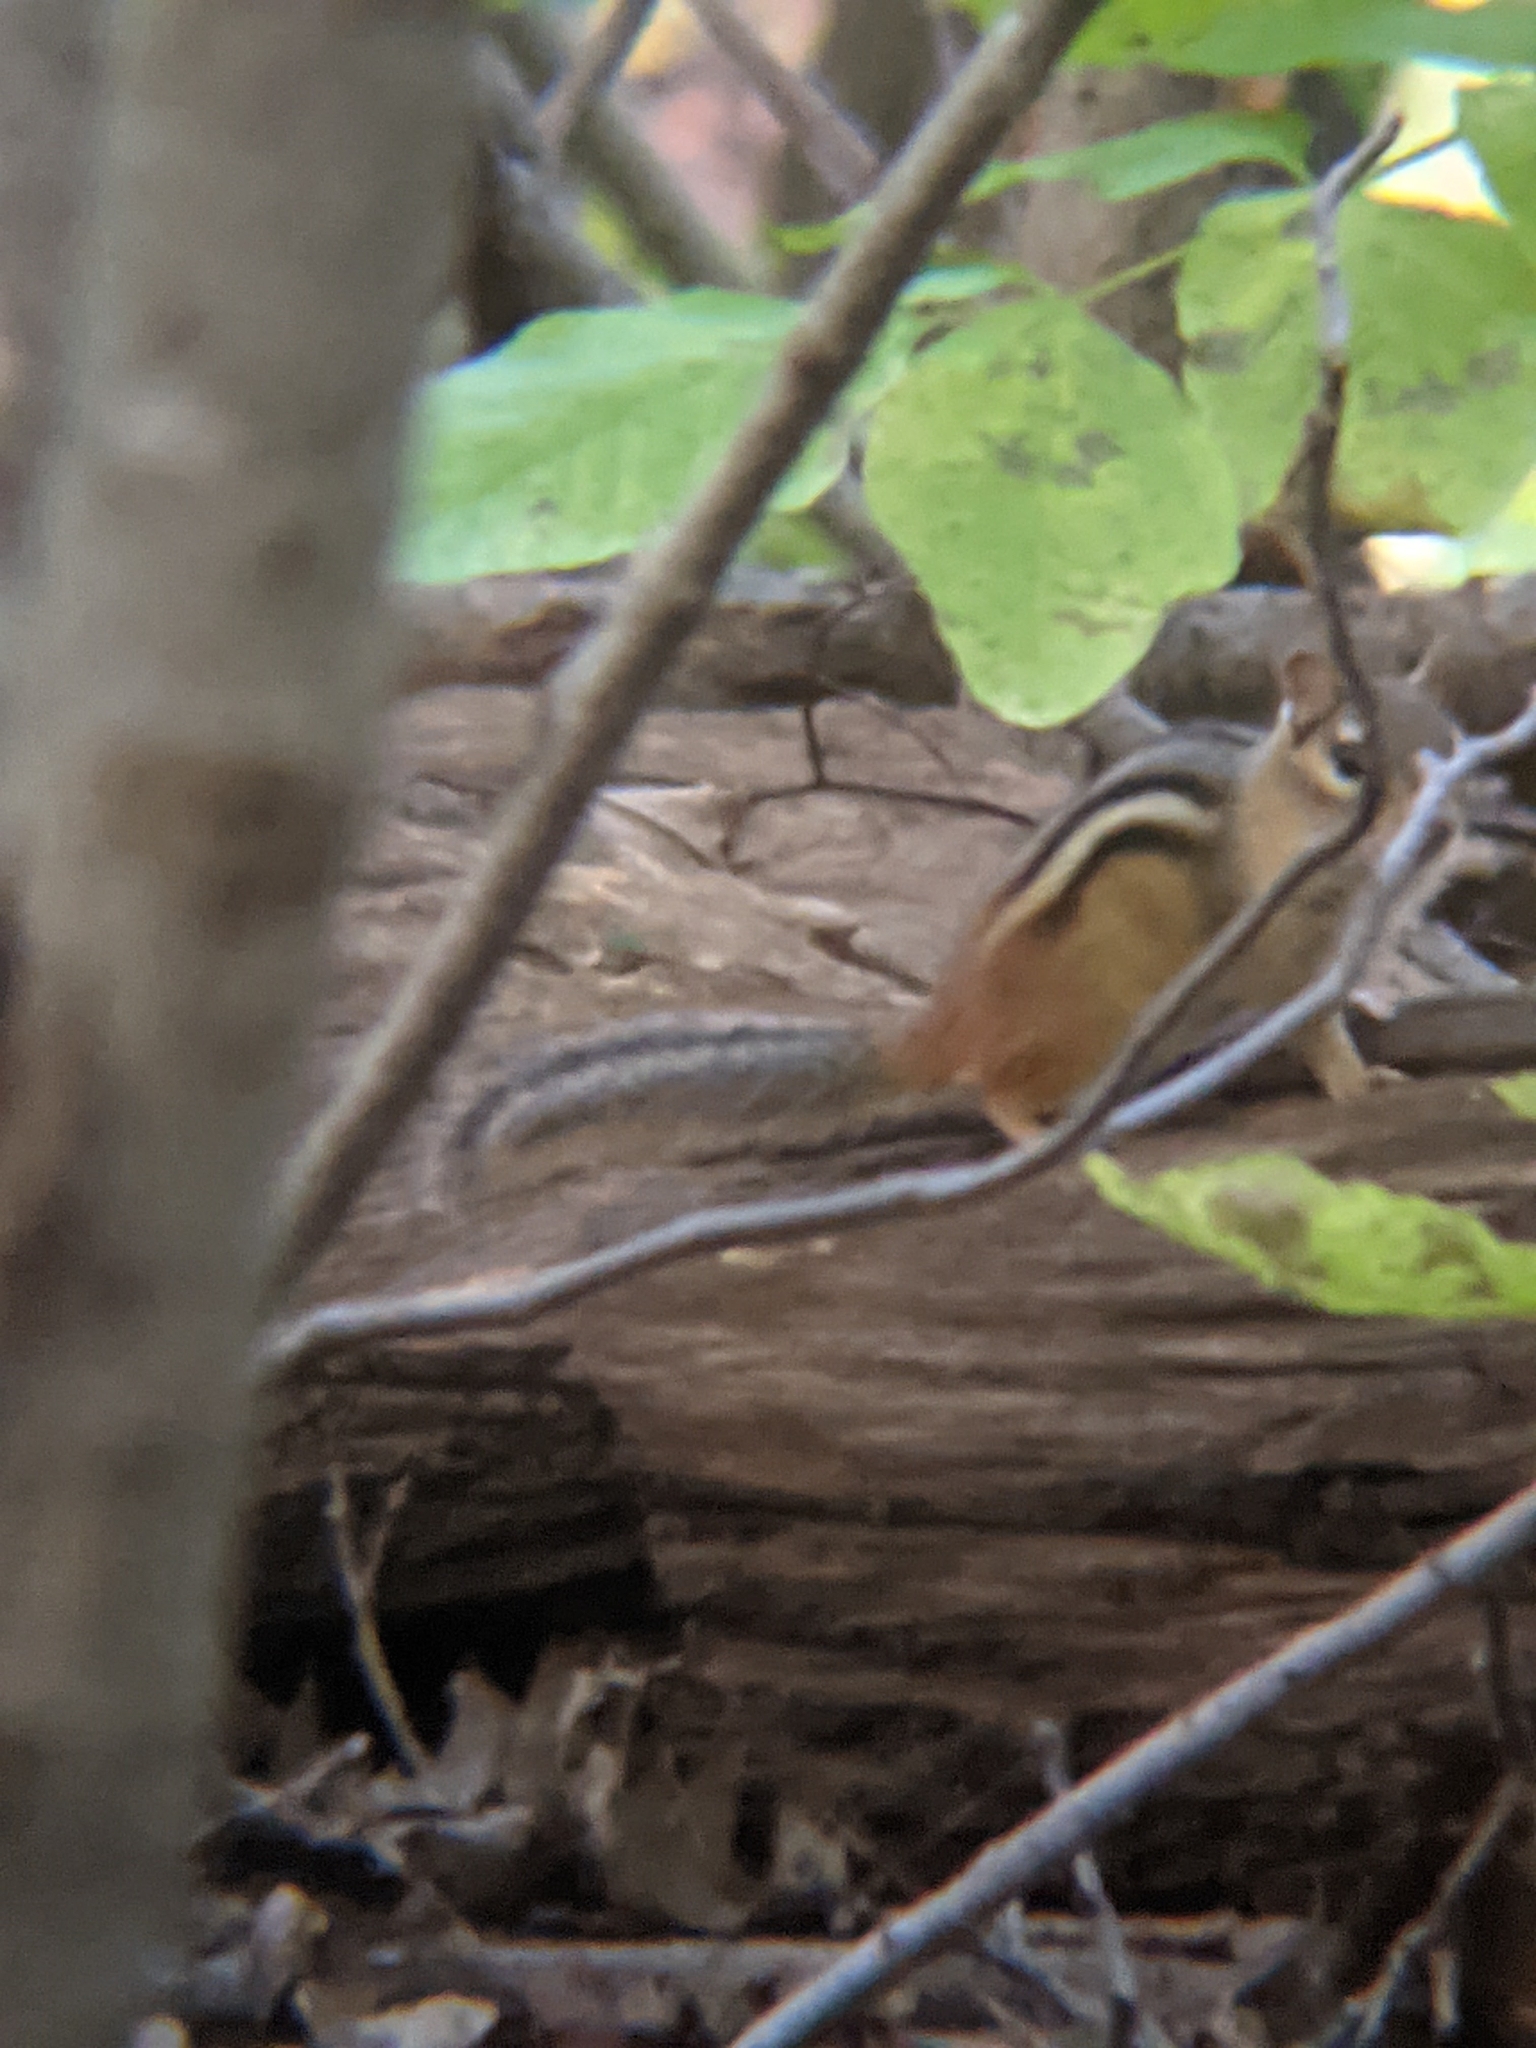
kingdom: Animalia
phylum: Chordata
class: Mammalia
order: Rodentia
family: Sciuridae
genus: Tamias
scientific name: Tamias striatus
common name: Eastern chipmunk
